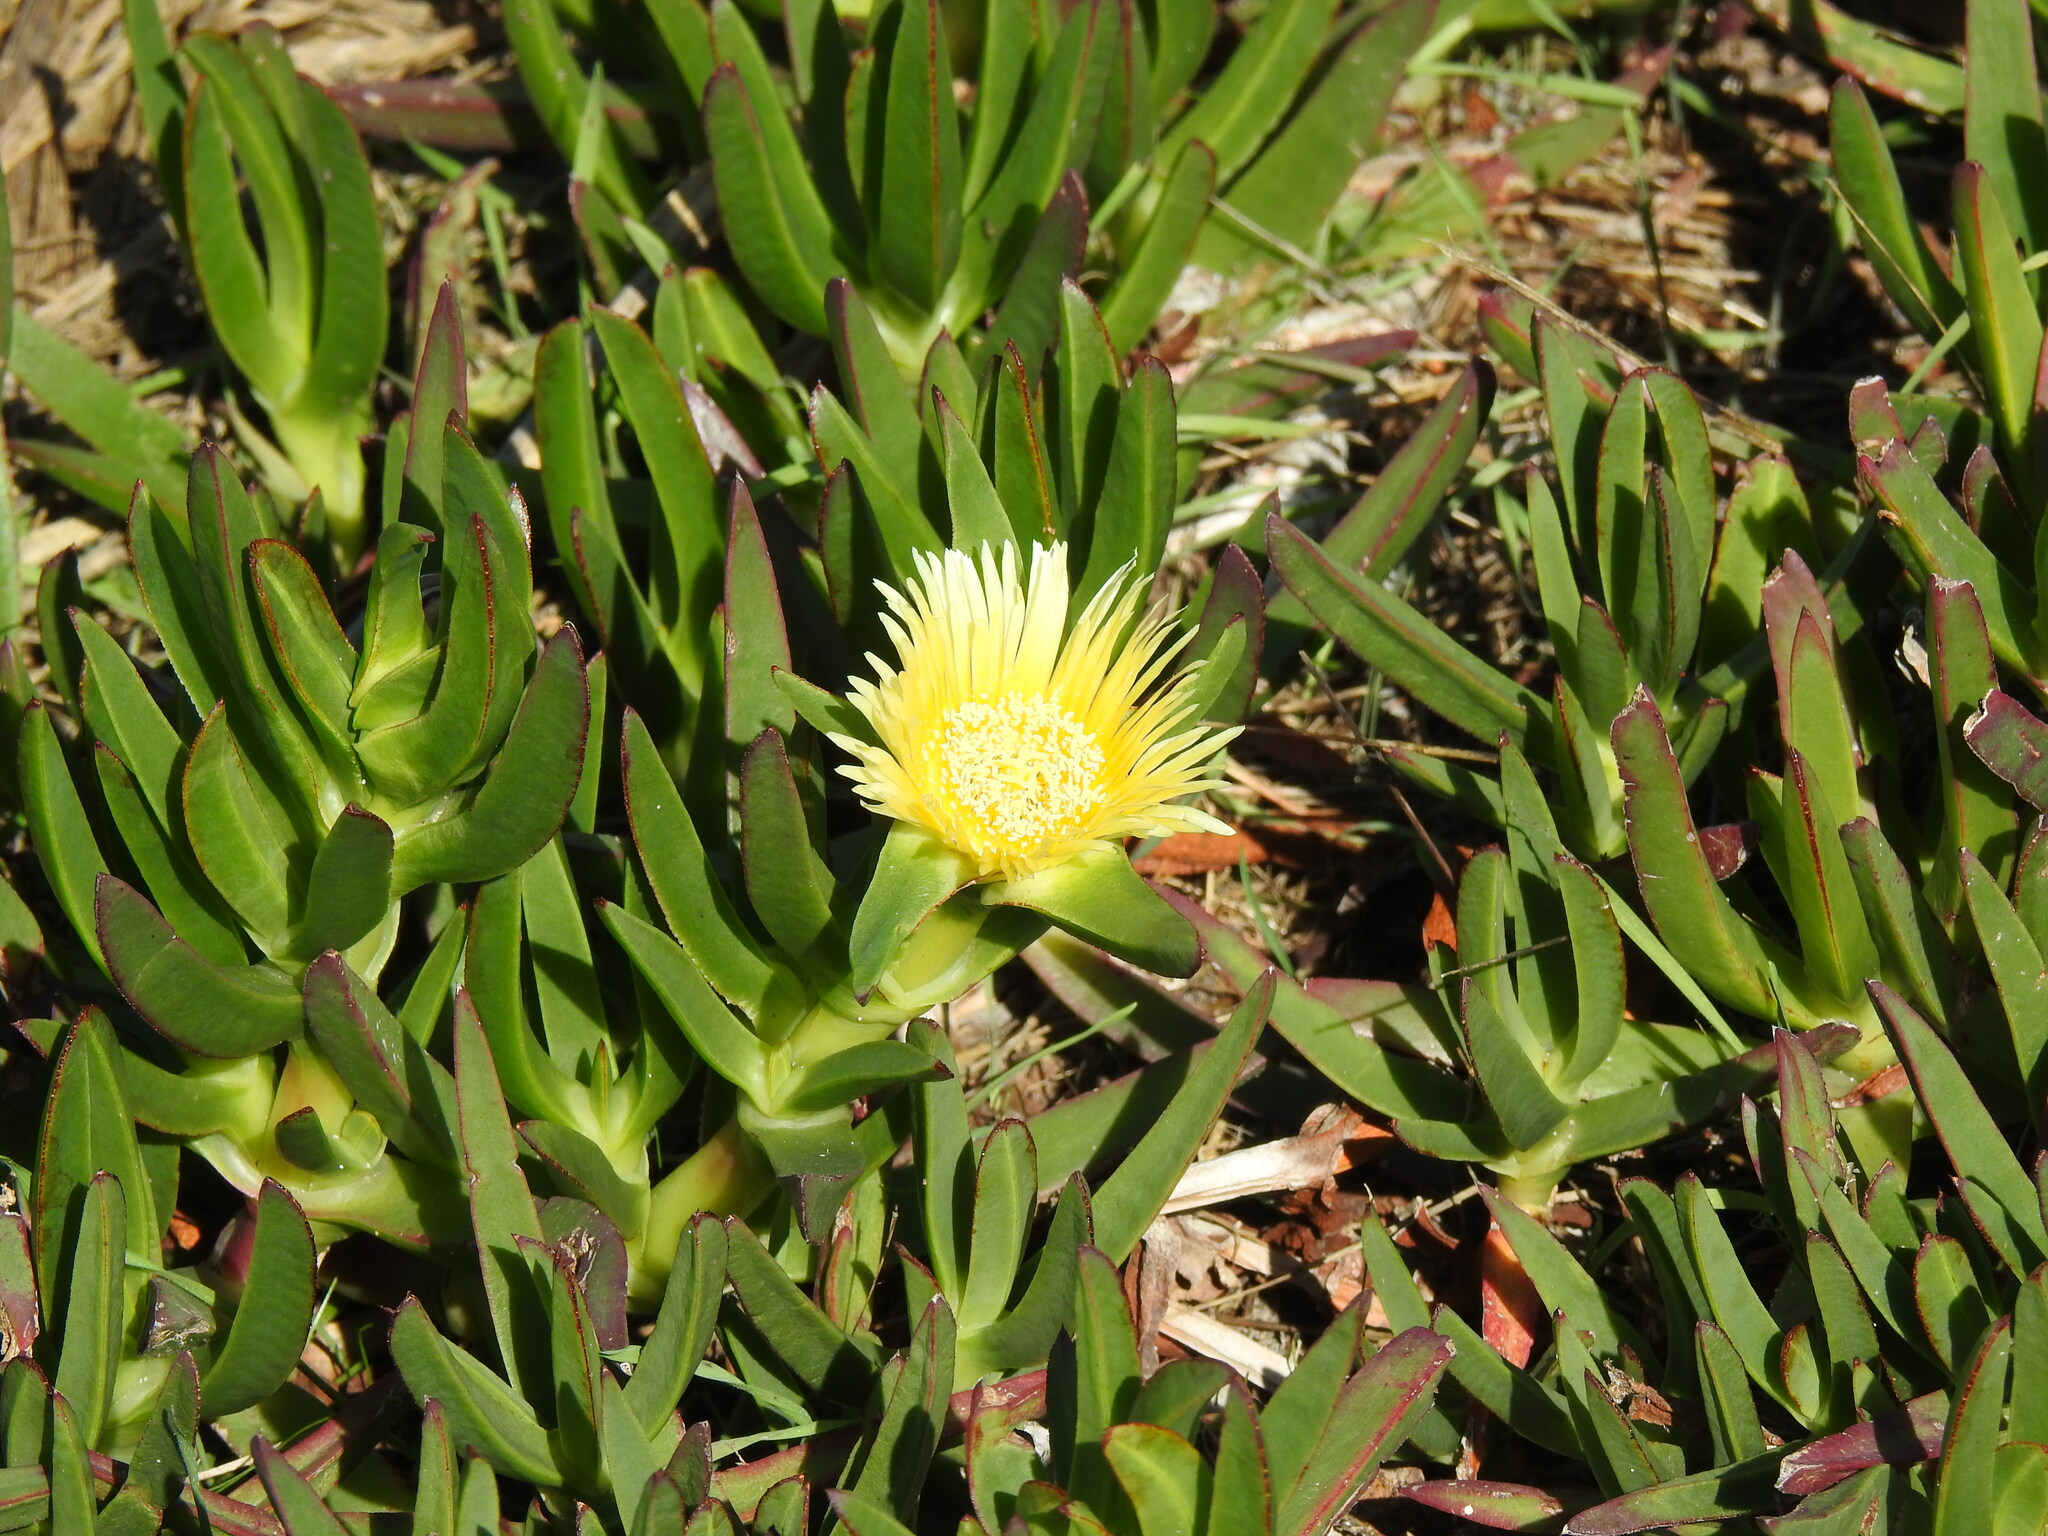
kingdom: Plantae
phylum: Tracheophyta
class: Magnoliopsida
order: Caryophyllales
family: Aizoaceae
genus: Carpobrotus
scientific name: Carpobrotus edulis
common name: Hottentot-fig
